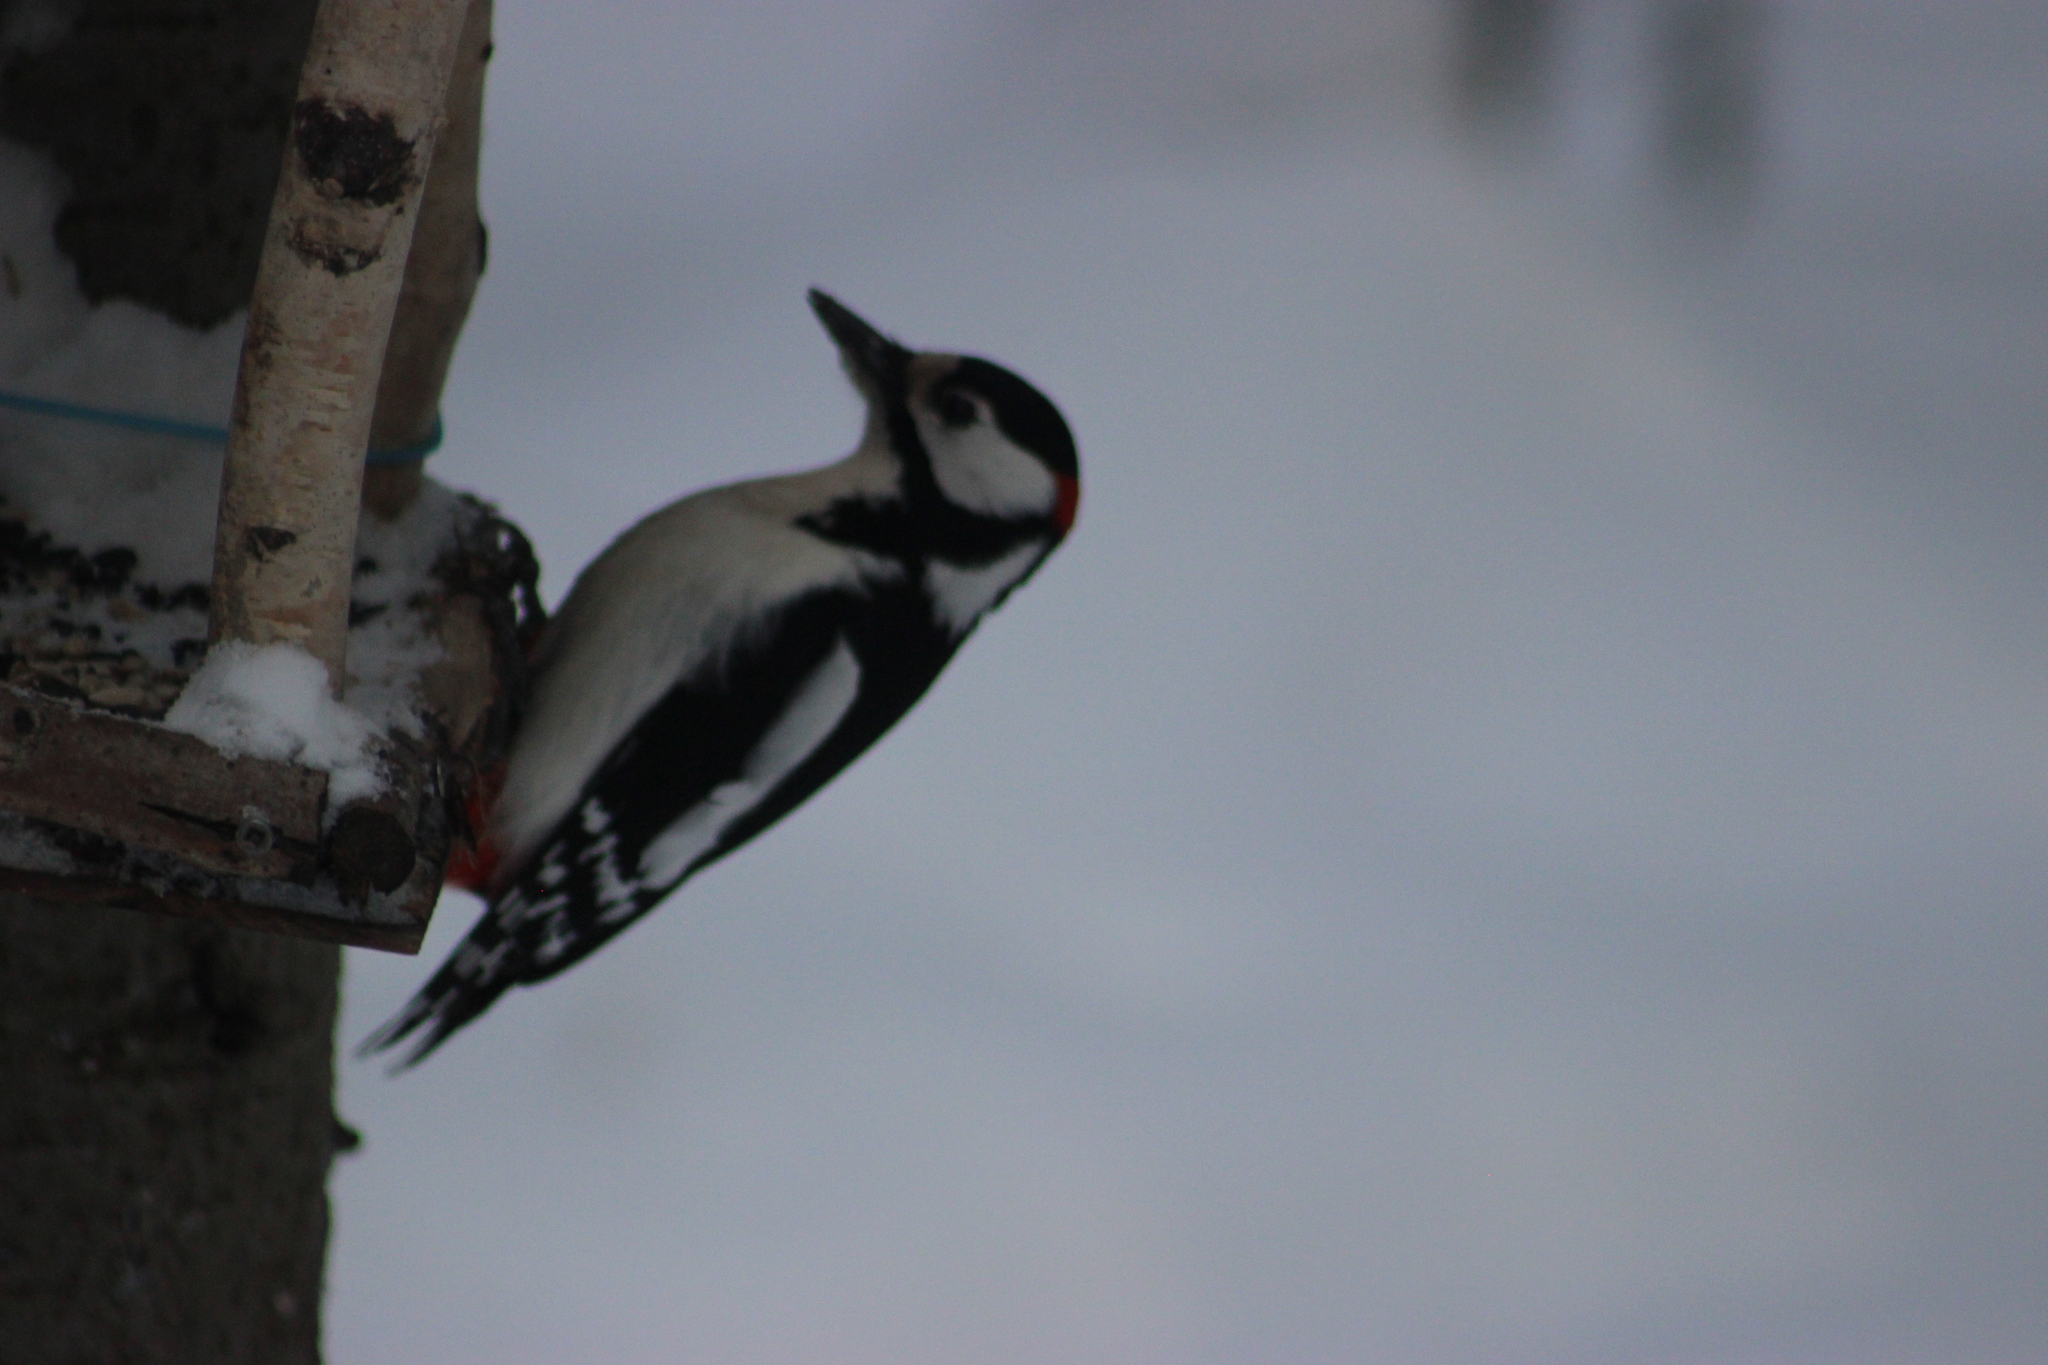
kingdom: Animalia
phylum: Chordata
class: Aves
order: Piciformes
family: Picidae
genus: Dendrocopos
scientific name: Dendrocopos major
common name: Great spotted woodpecker
